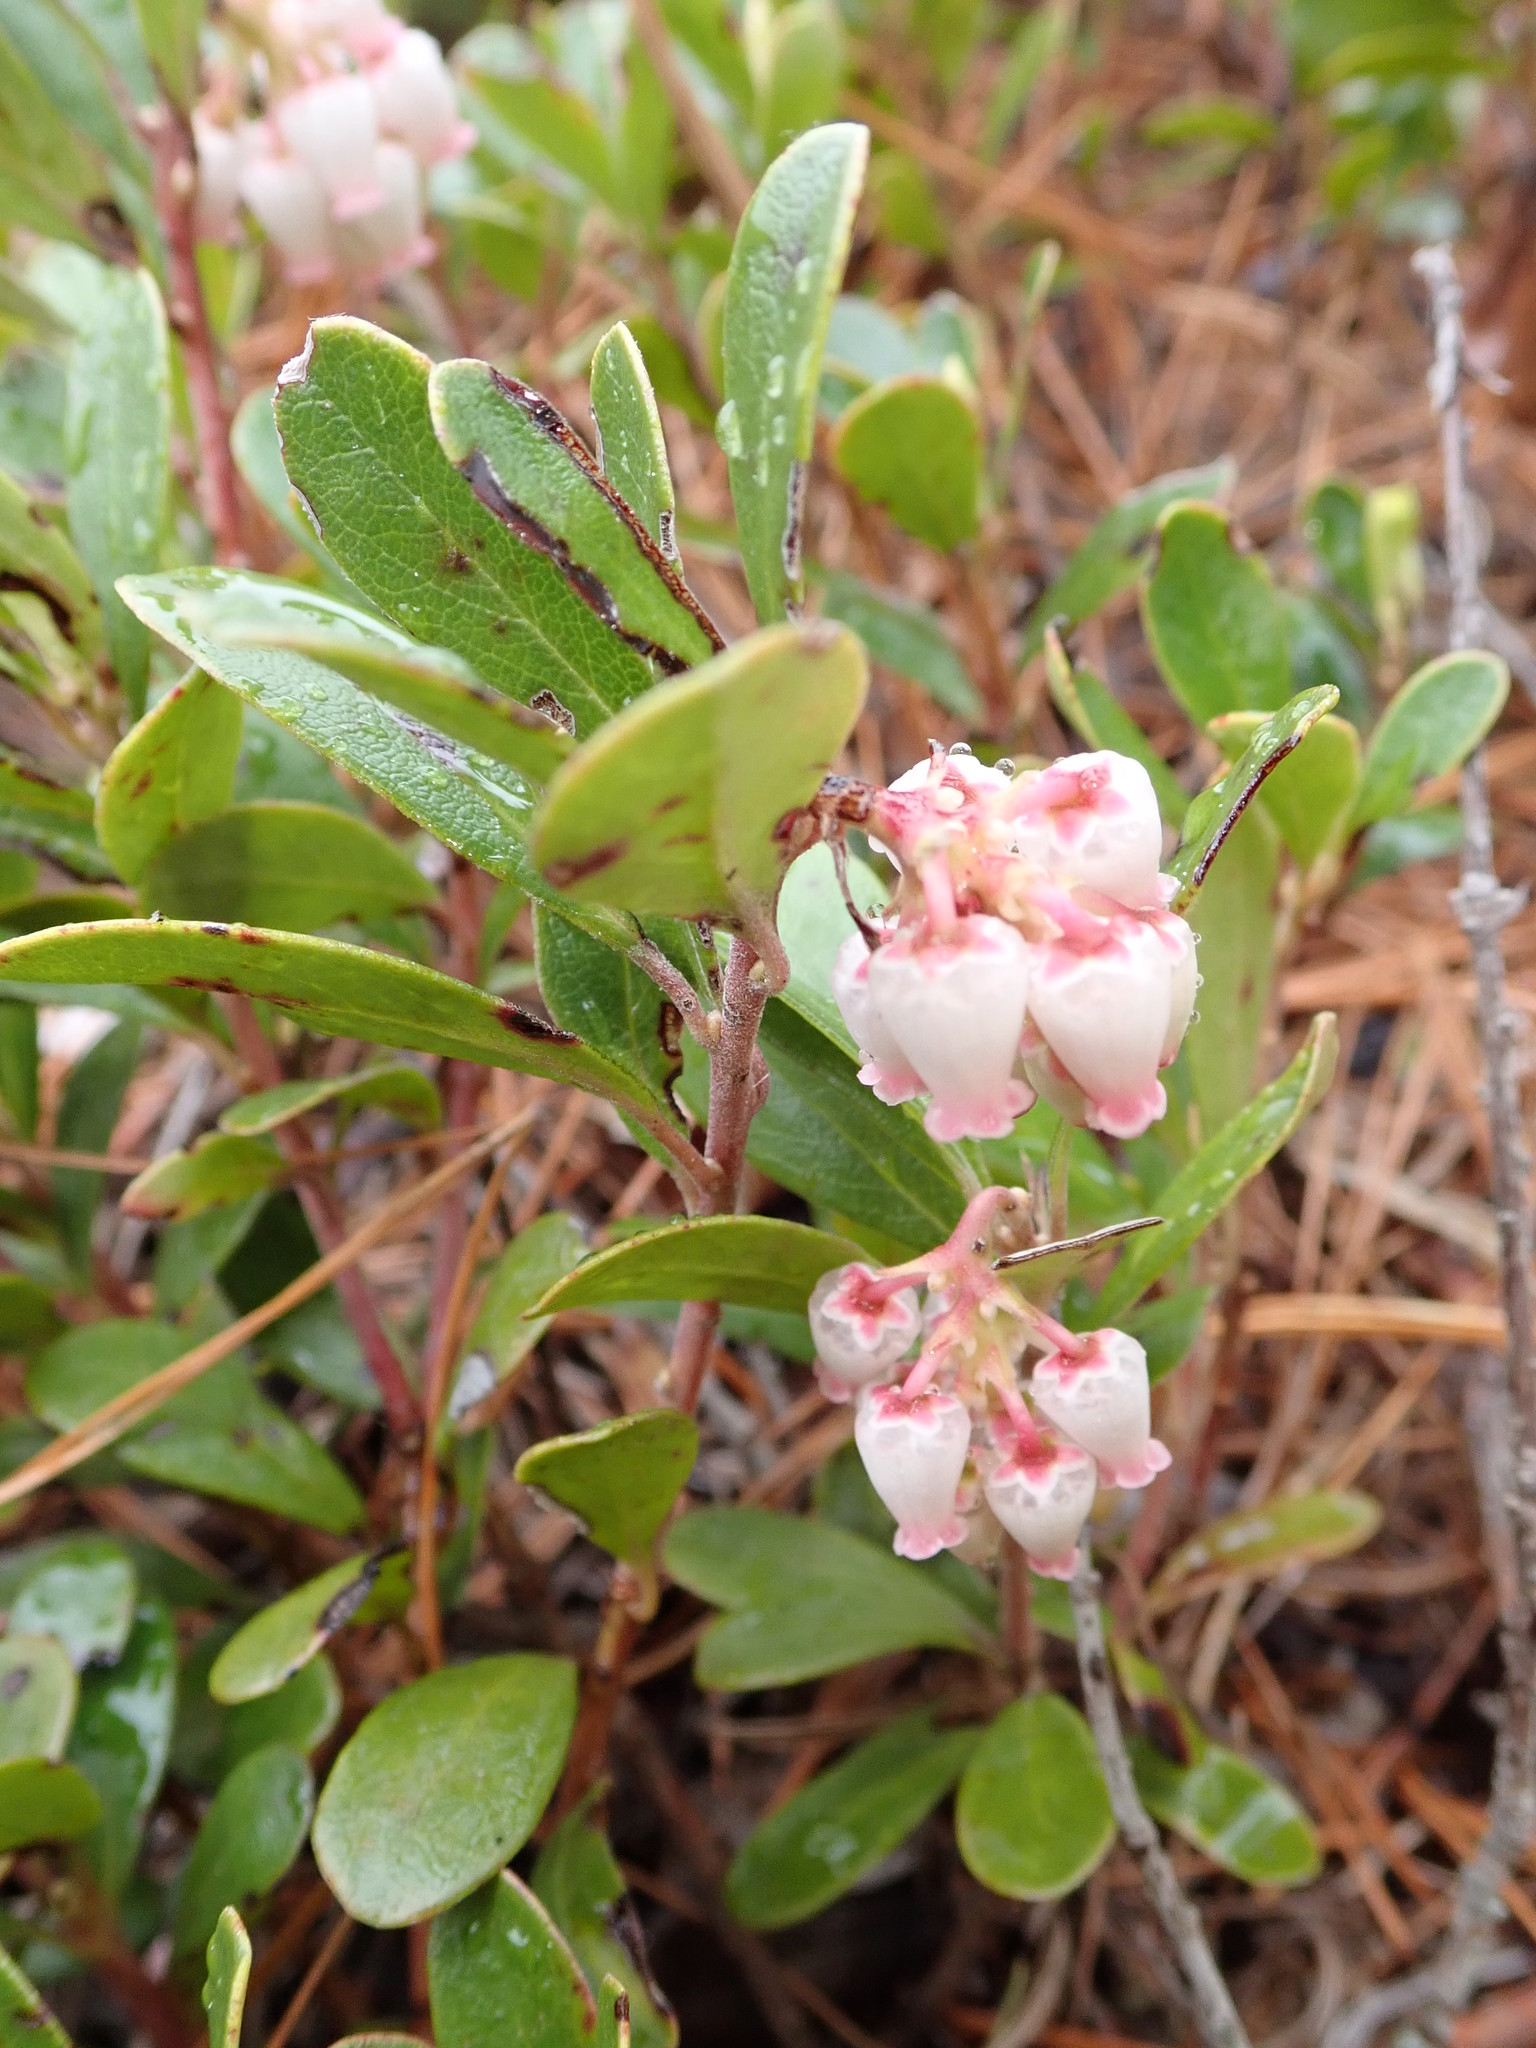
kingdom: Plantae
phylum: Tracheophyta
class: Magnoliopsida
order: Ericales
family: Ericaceae
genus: Arctostaphylos
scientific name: Arctostaphylos uva-ursi
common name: Bearberry
